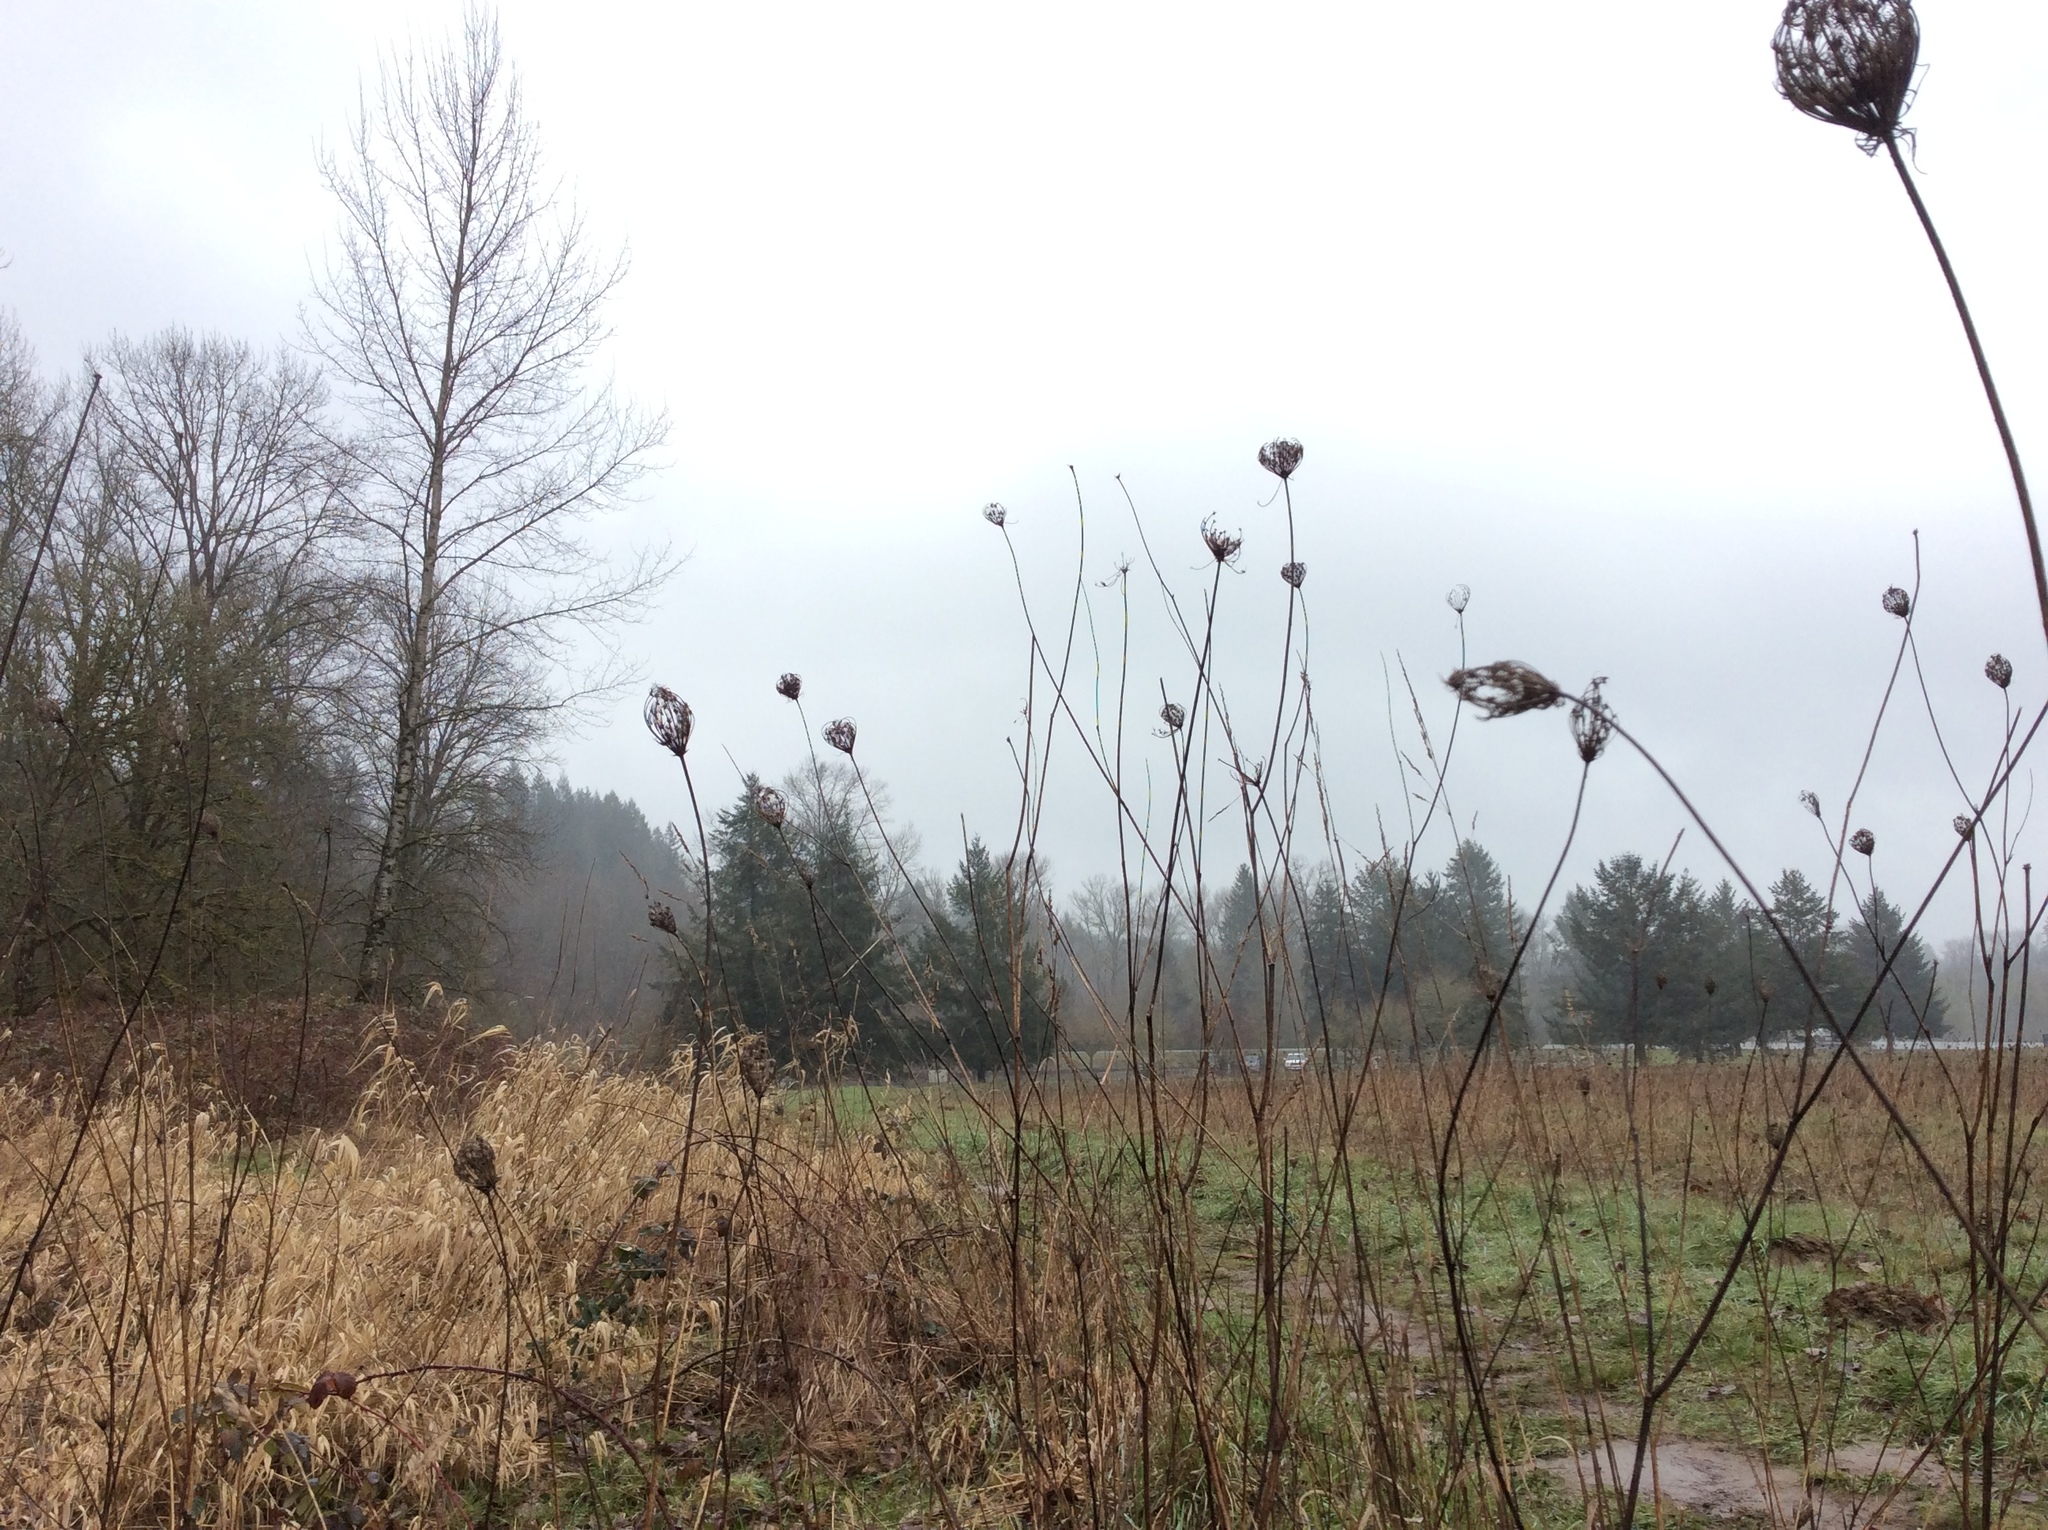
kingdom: Plantae
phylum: Tracheophyta
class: Magnoliopsida
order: Apiales
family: Apiaceae
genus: Daucus
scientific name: Daucus carota
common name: Wild carrot
